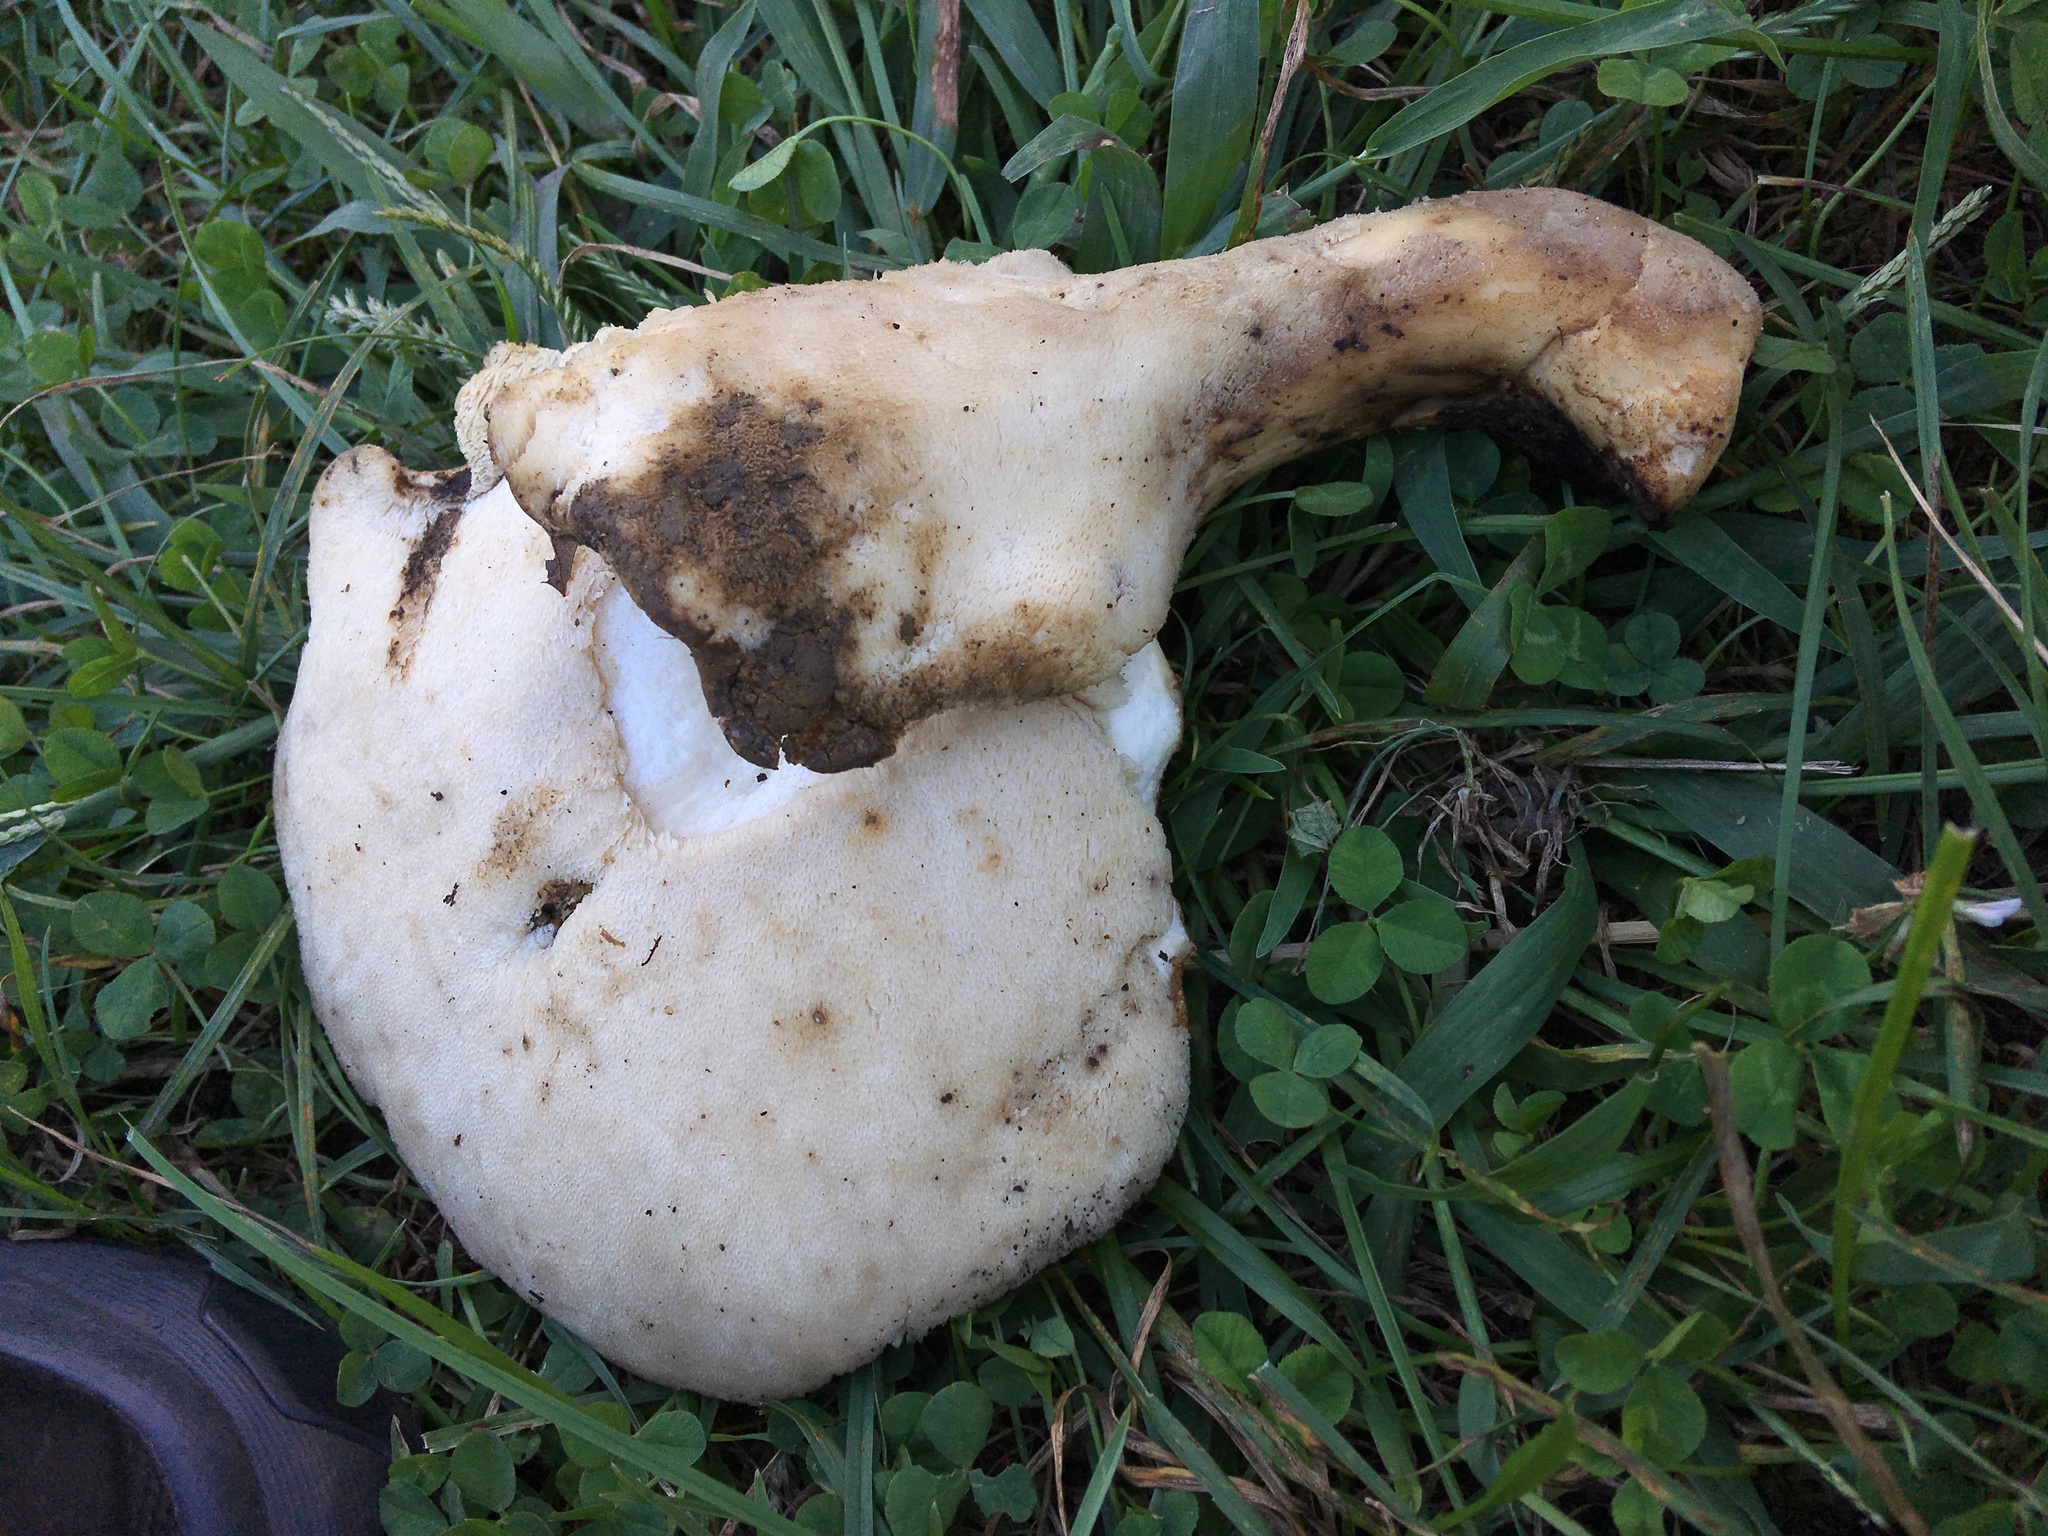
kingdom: Fungi
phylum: Basidiomycota
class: Agaricomycetes
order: Polyporales
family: Polyporaceae
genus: Polyporus
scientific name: Polyporus radicatus
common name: Rooting polypore
